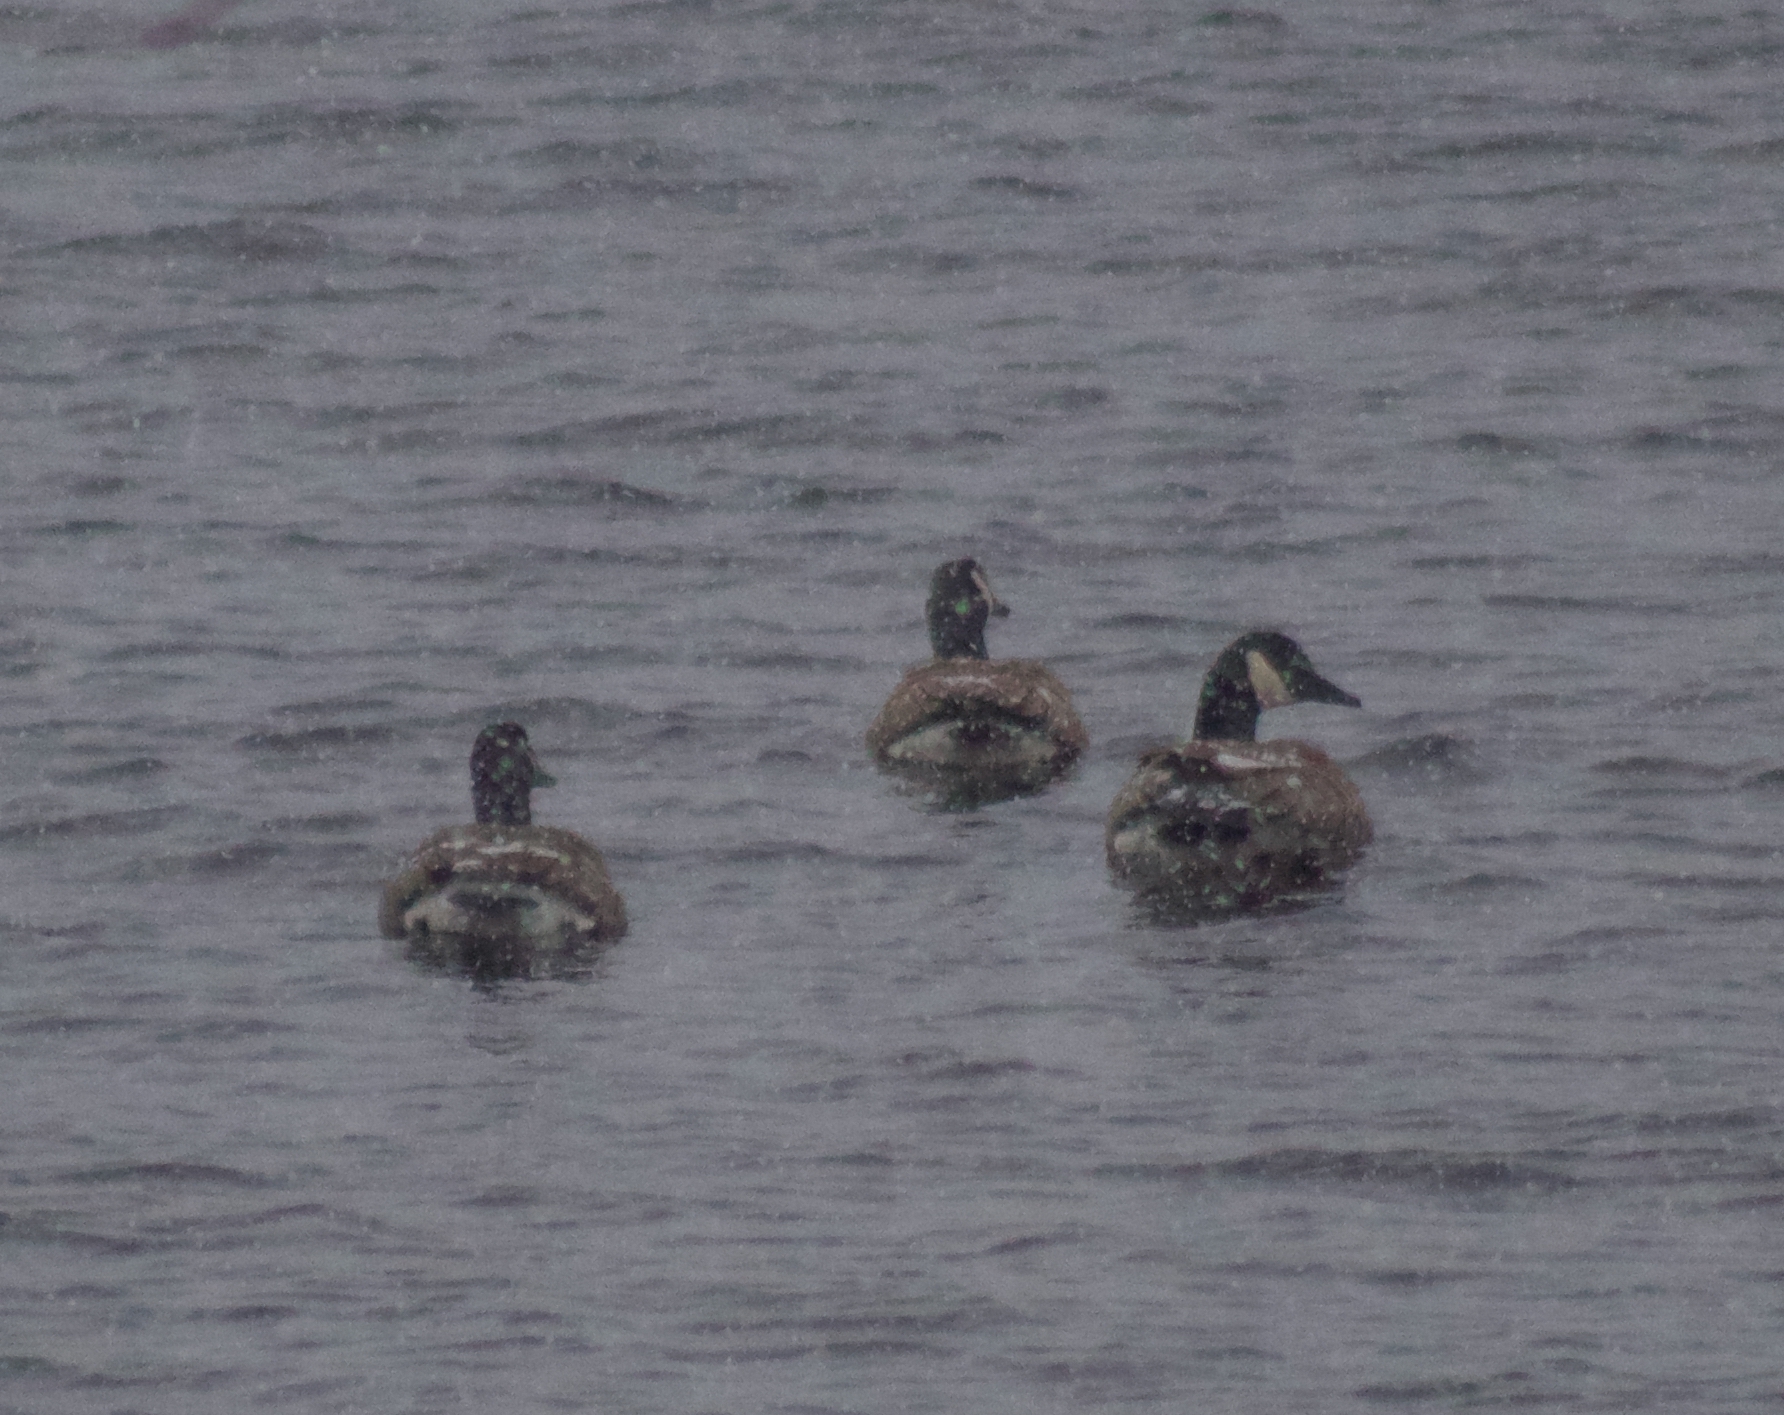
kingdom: Animalia
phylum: Chordata
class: Aves
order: Anseriformes
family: Anatidae
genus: Branta
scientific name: Branta canadensis
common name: Canada goose
